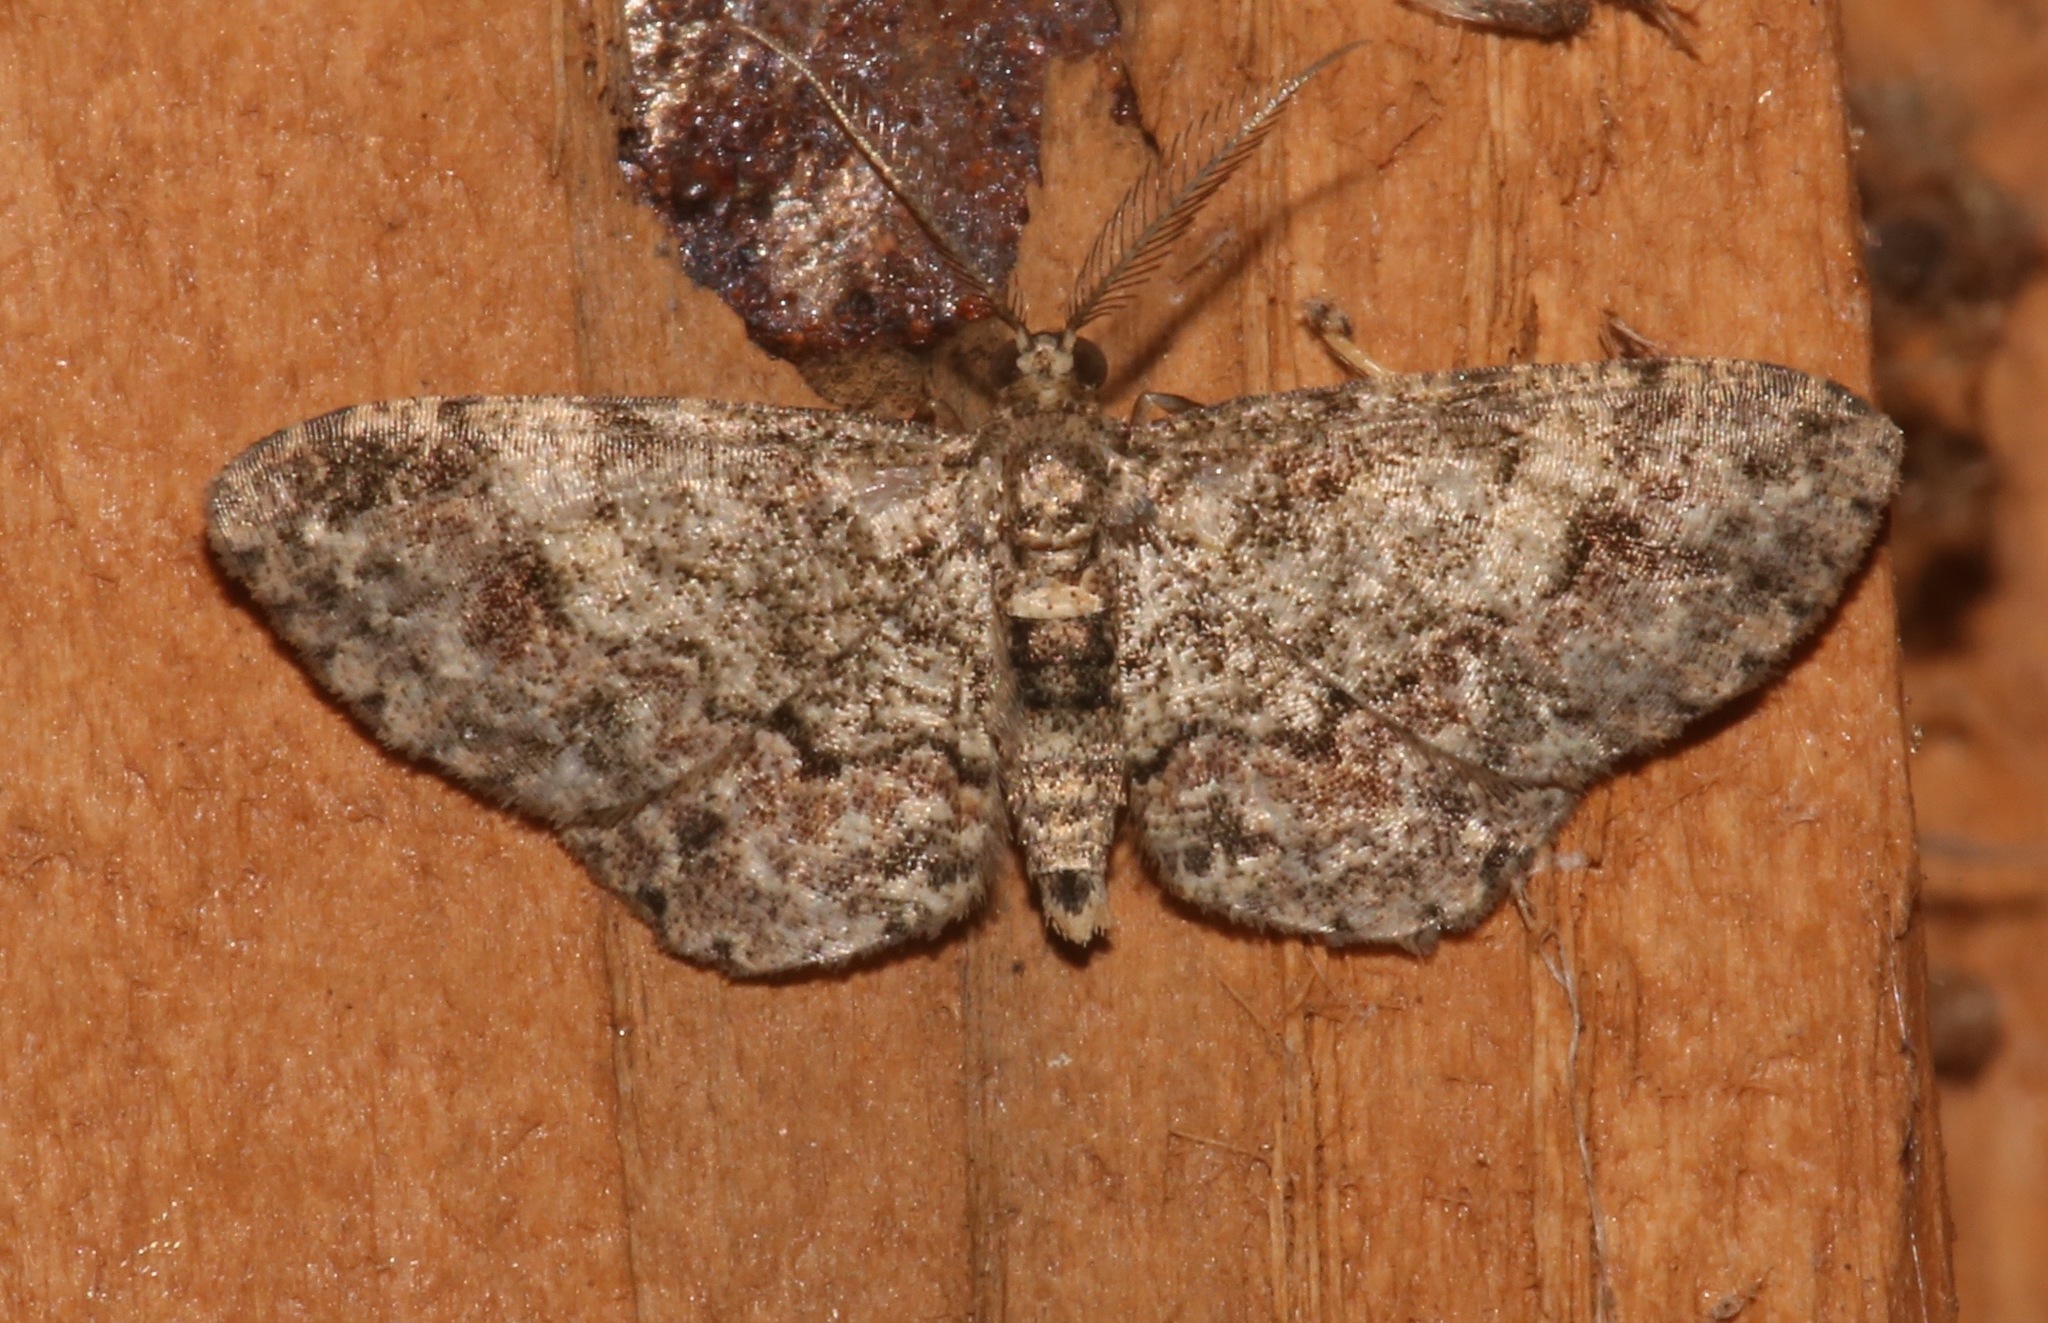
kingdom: Animalia
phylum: Arthropoda
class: Insecta
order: Lepidoptera
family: Geometridae
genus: Glenoides
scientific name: Glenoides texanaria
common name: Texas gray
